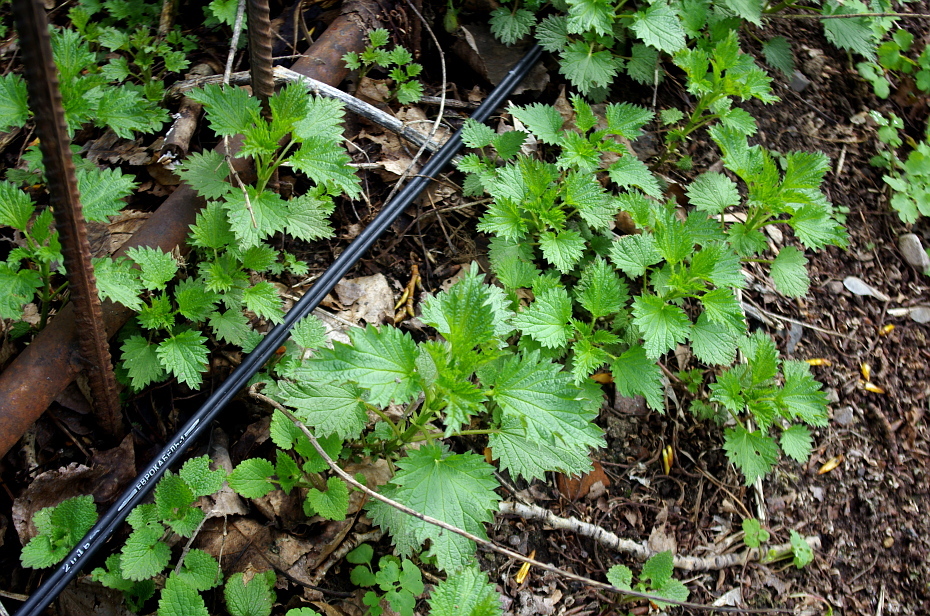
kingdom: Plantae
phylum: Tracheophyta
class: Magnoliopsida
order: Rosales
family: Urticaceae
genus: Urtica
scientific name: Urtica dioica
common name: Common nettle
